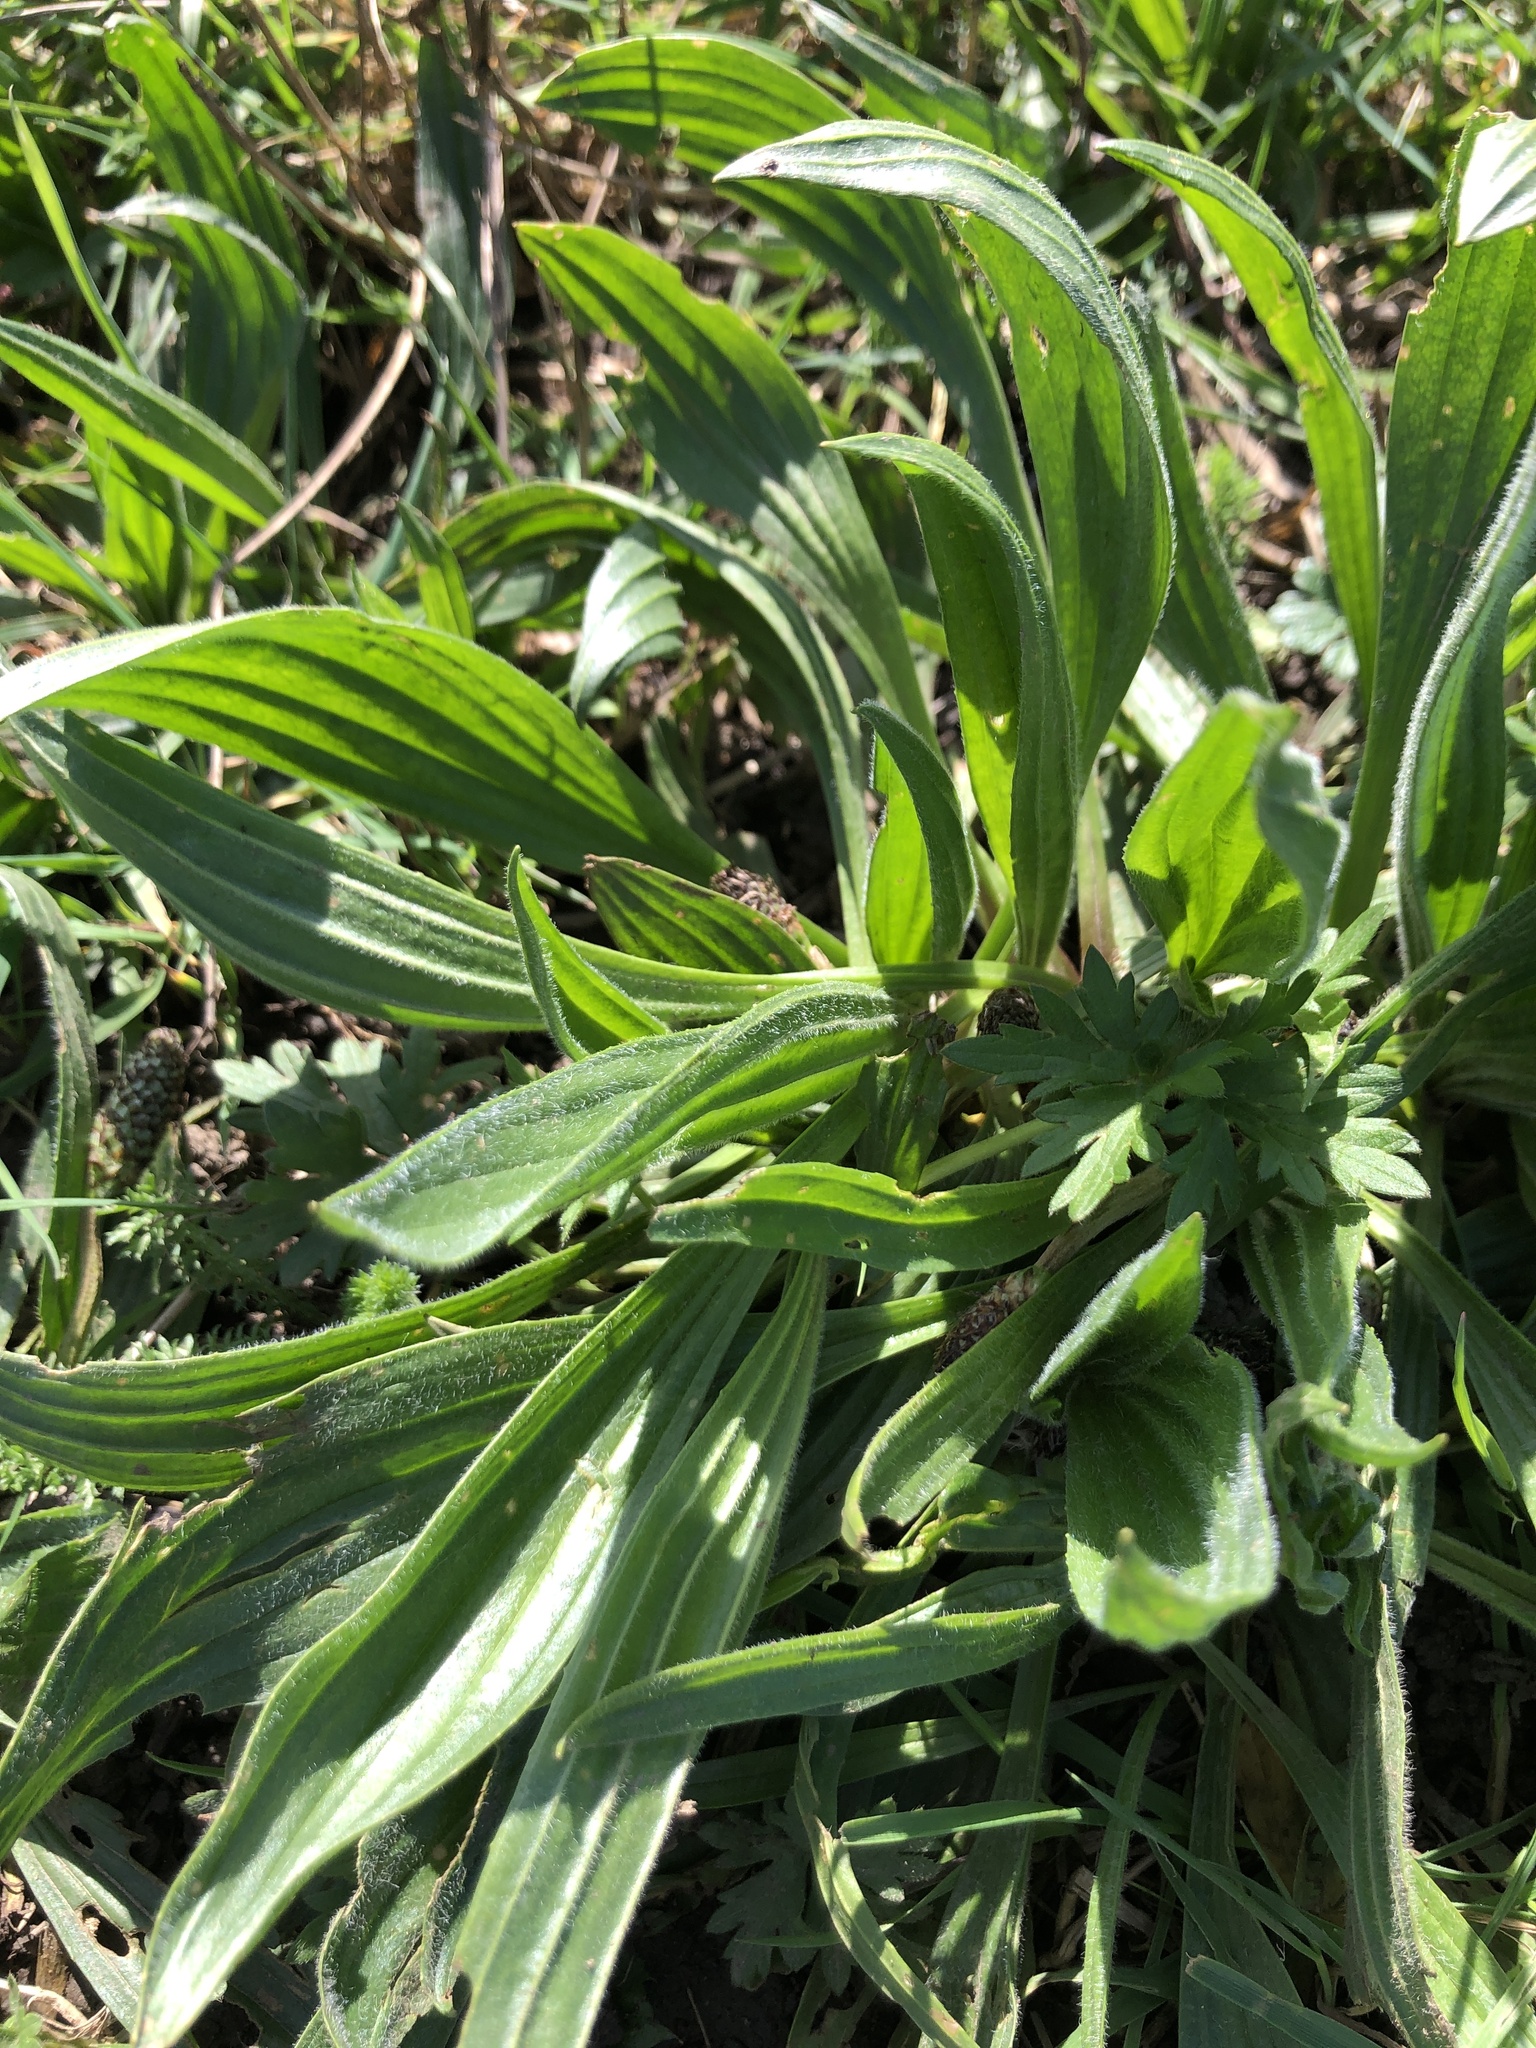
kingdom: Plantae
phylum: Tracheophyta
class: Magnoliopsida
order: Lamiales
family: Plantaginaceae
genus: Plantago
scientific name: Plantago lanceolata
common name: Ribwort plantain
